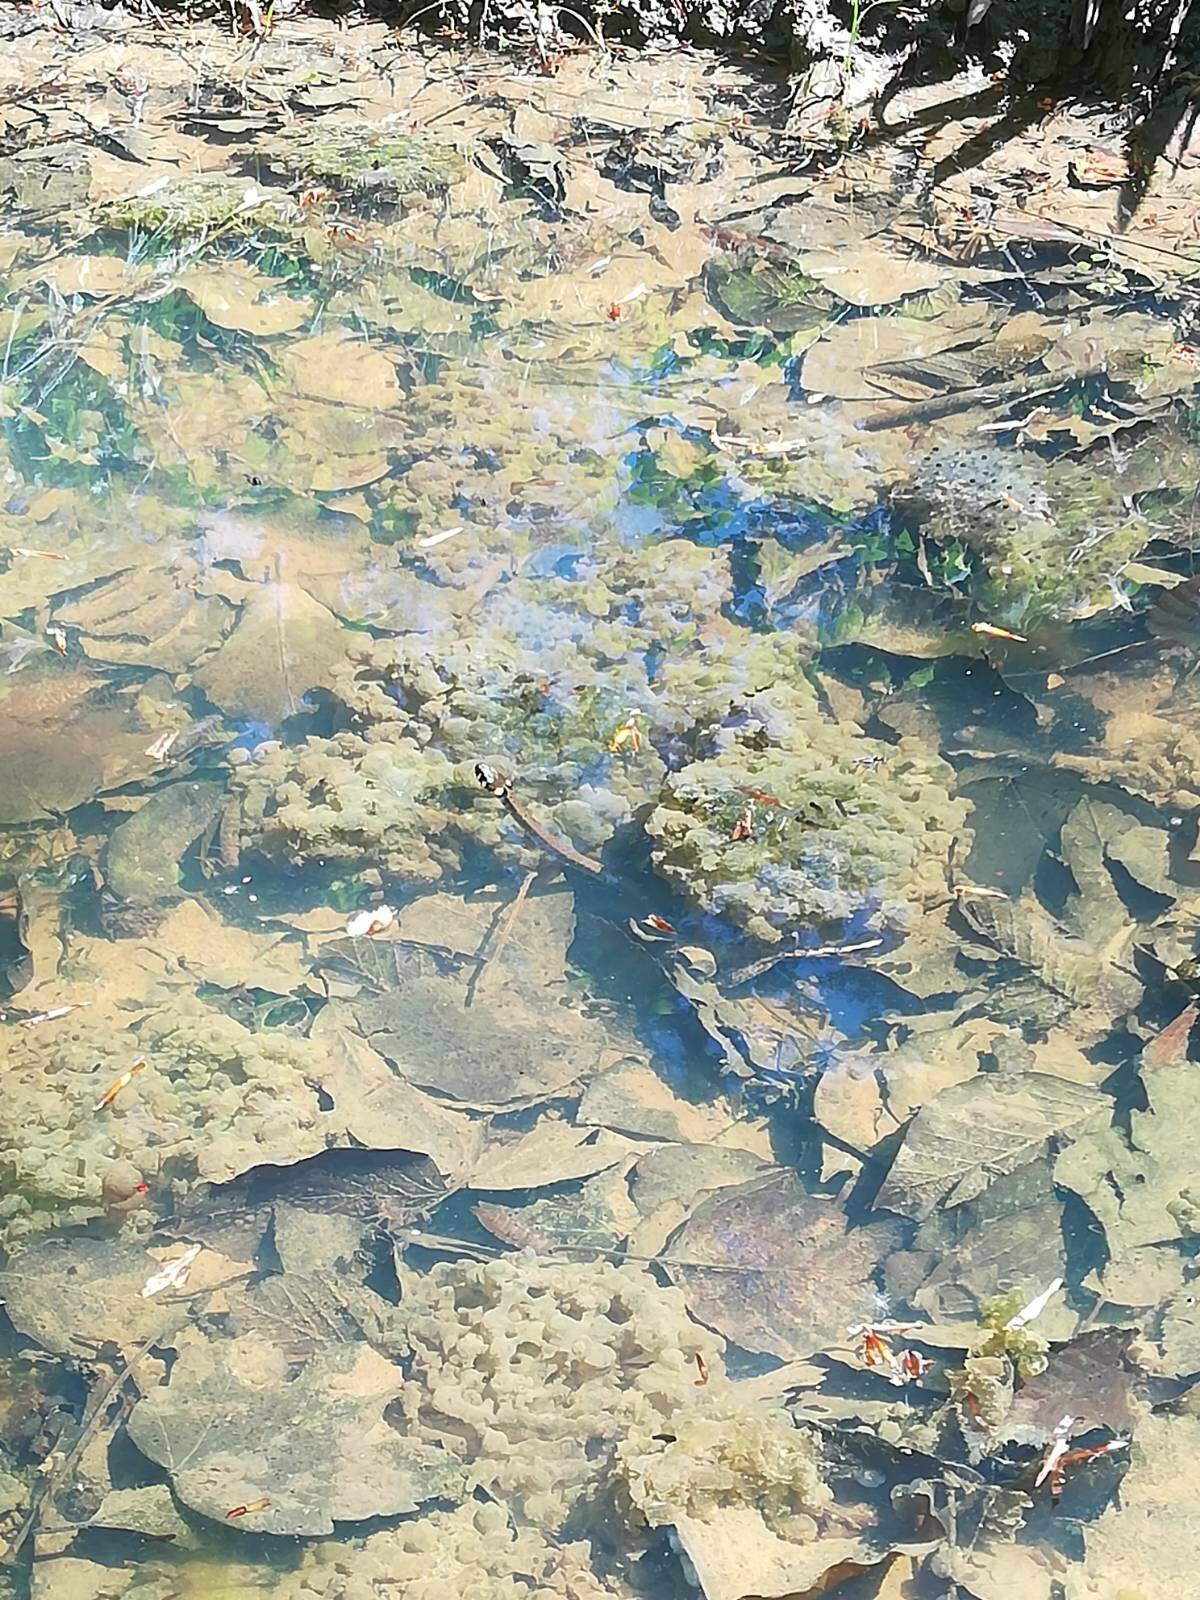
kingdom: Animalia
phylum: Chordata
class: Squamata
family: Colubridae
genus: Natrix
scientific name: Natrix natrix
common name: Grass snake
